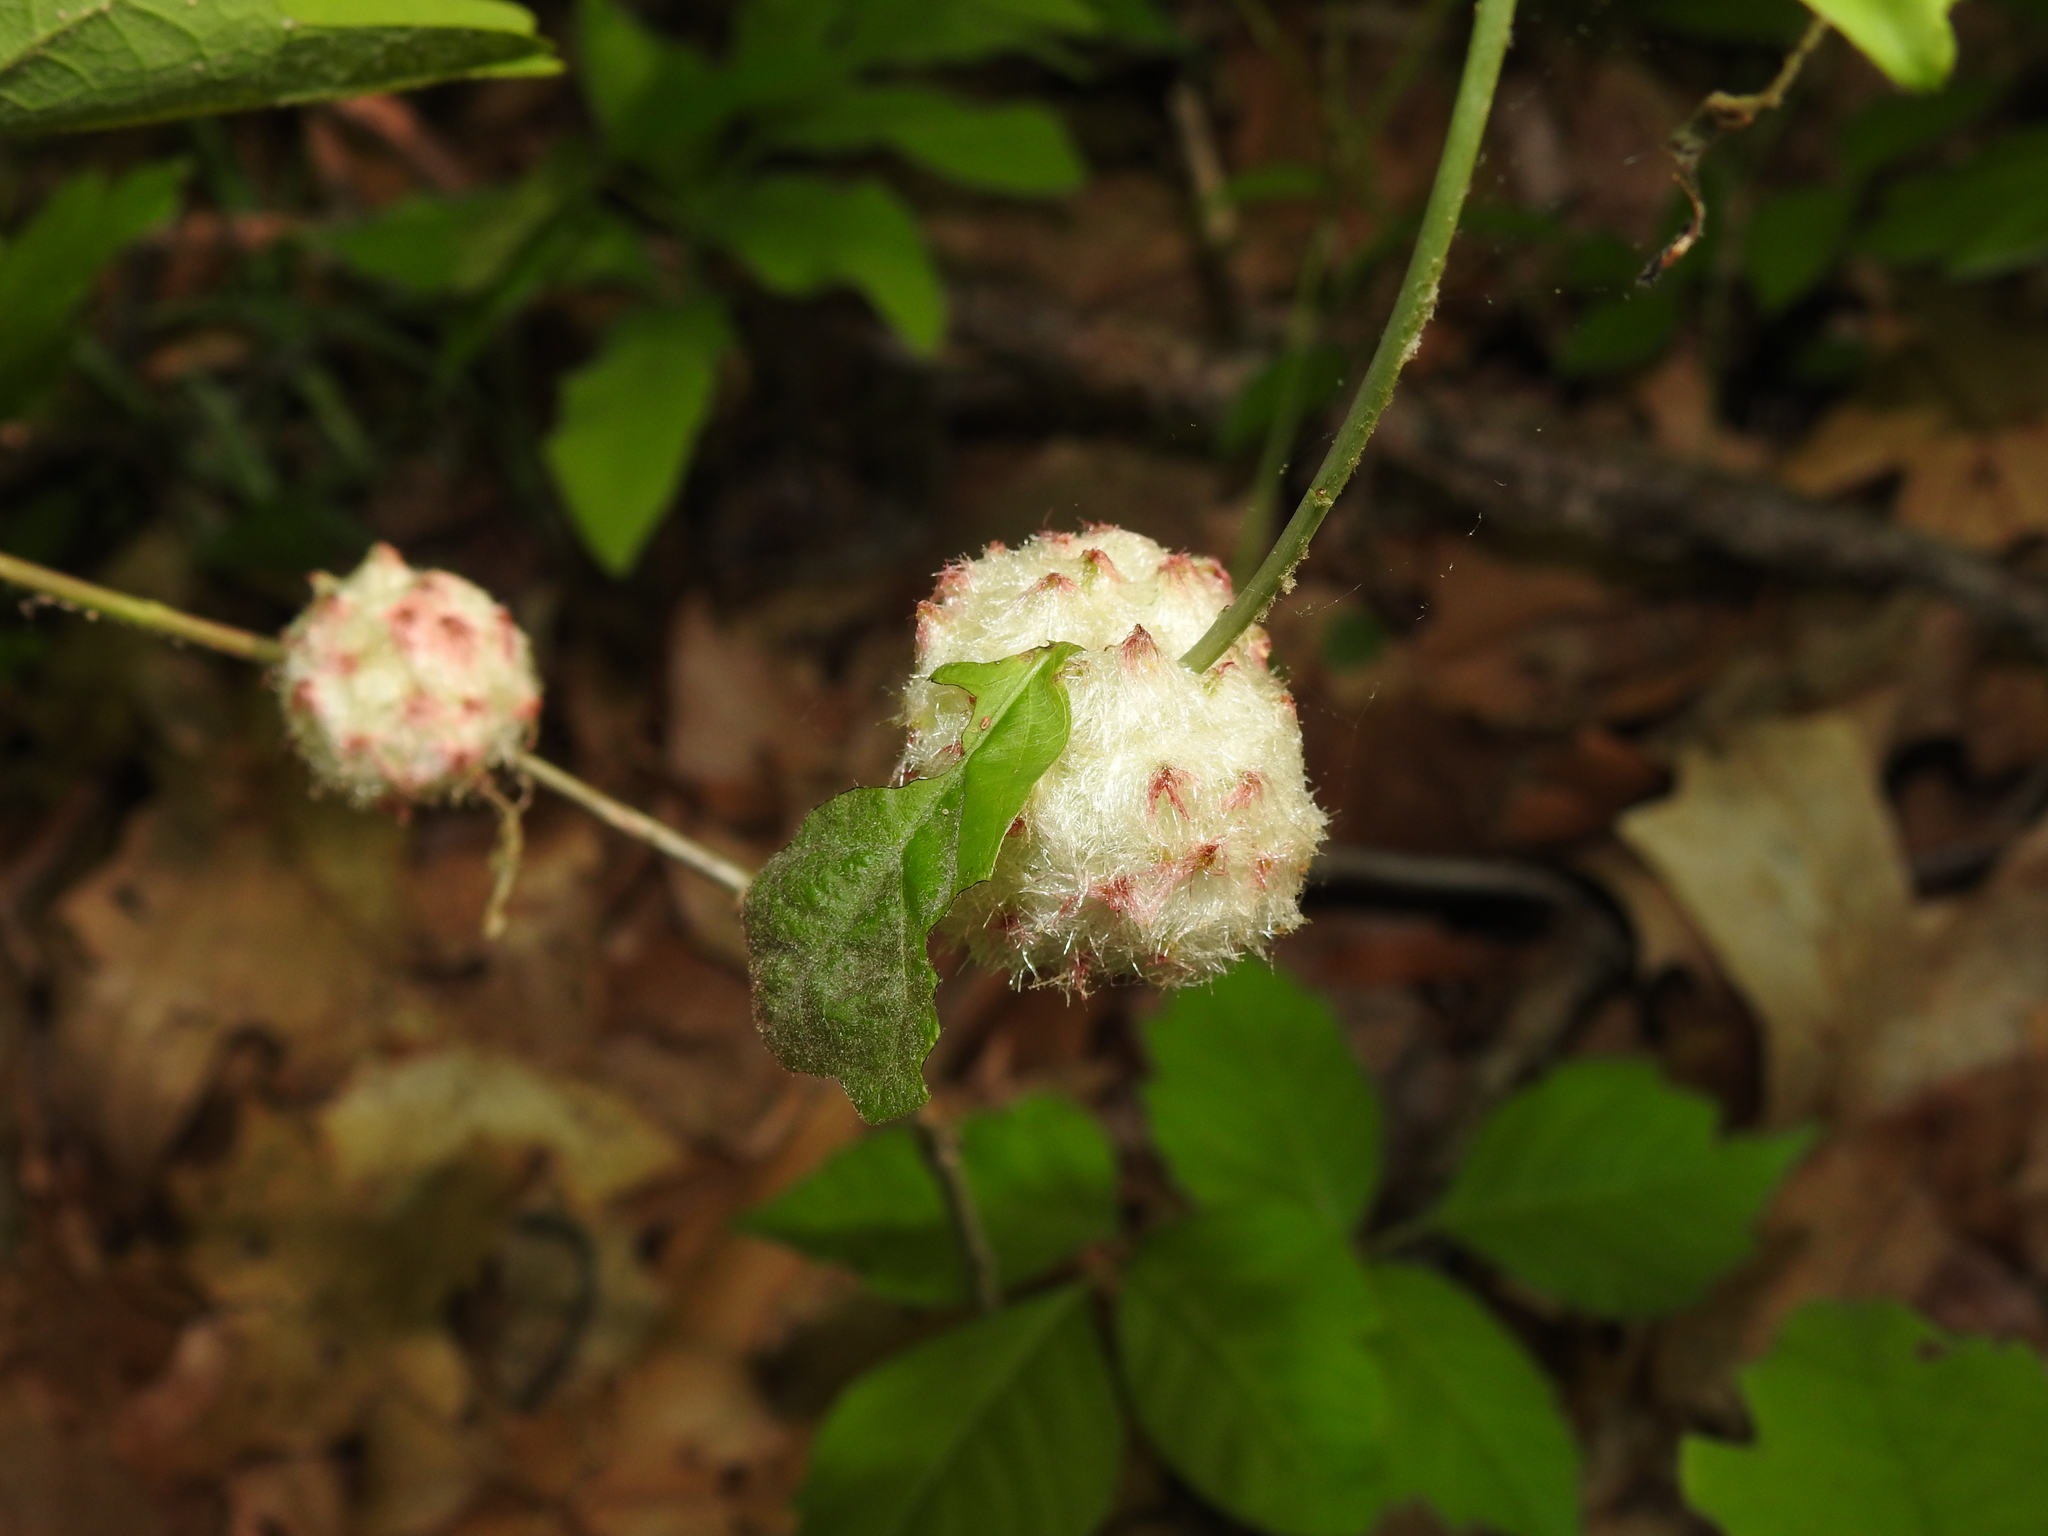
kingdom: Animalia
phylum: Arthropoda
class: Insecta
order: Hymenoptera
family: Cynipidae
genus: Callirhytis
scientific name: Callirhytis
